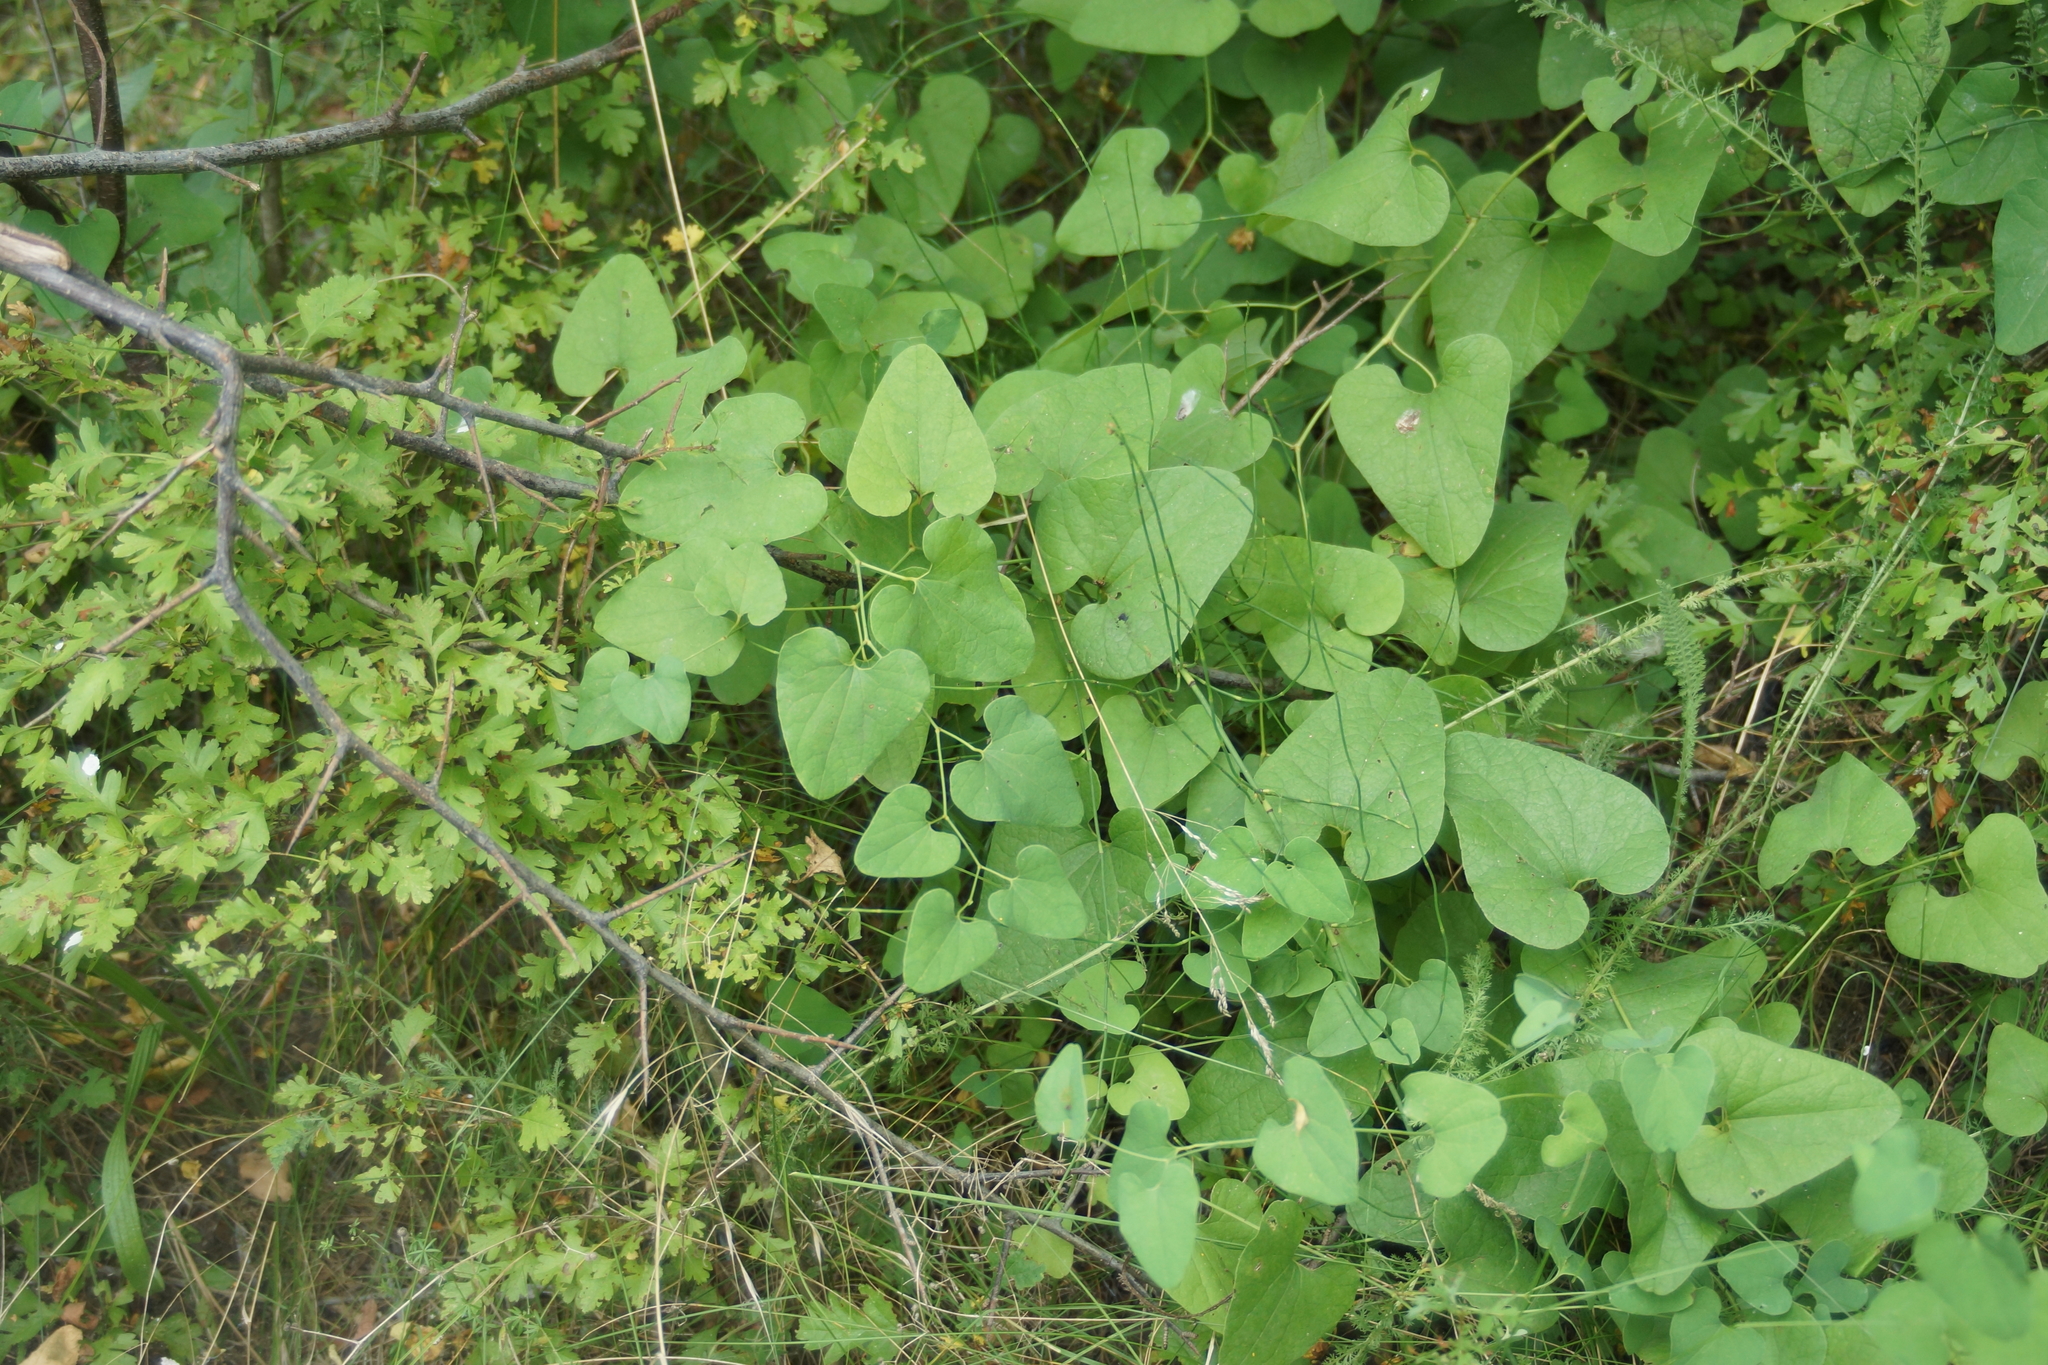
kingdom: Plantae
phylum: Tracheophyta
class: Magnoliopsida
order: Piperales
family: Aristolochiaceae
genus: Aristolochia
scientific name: Aristolochia clematitis
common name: Birthwort
